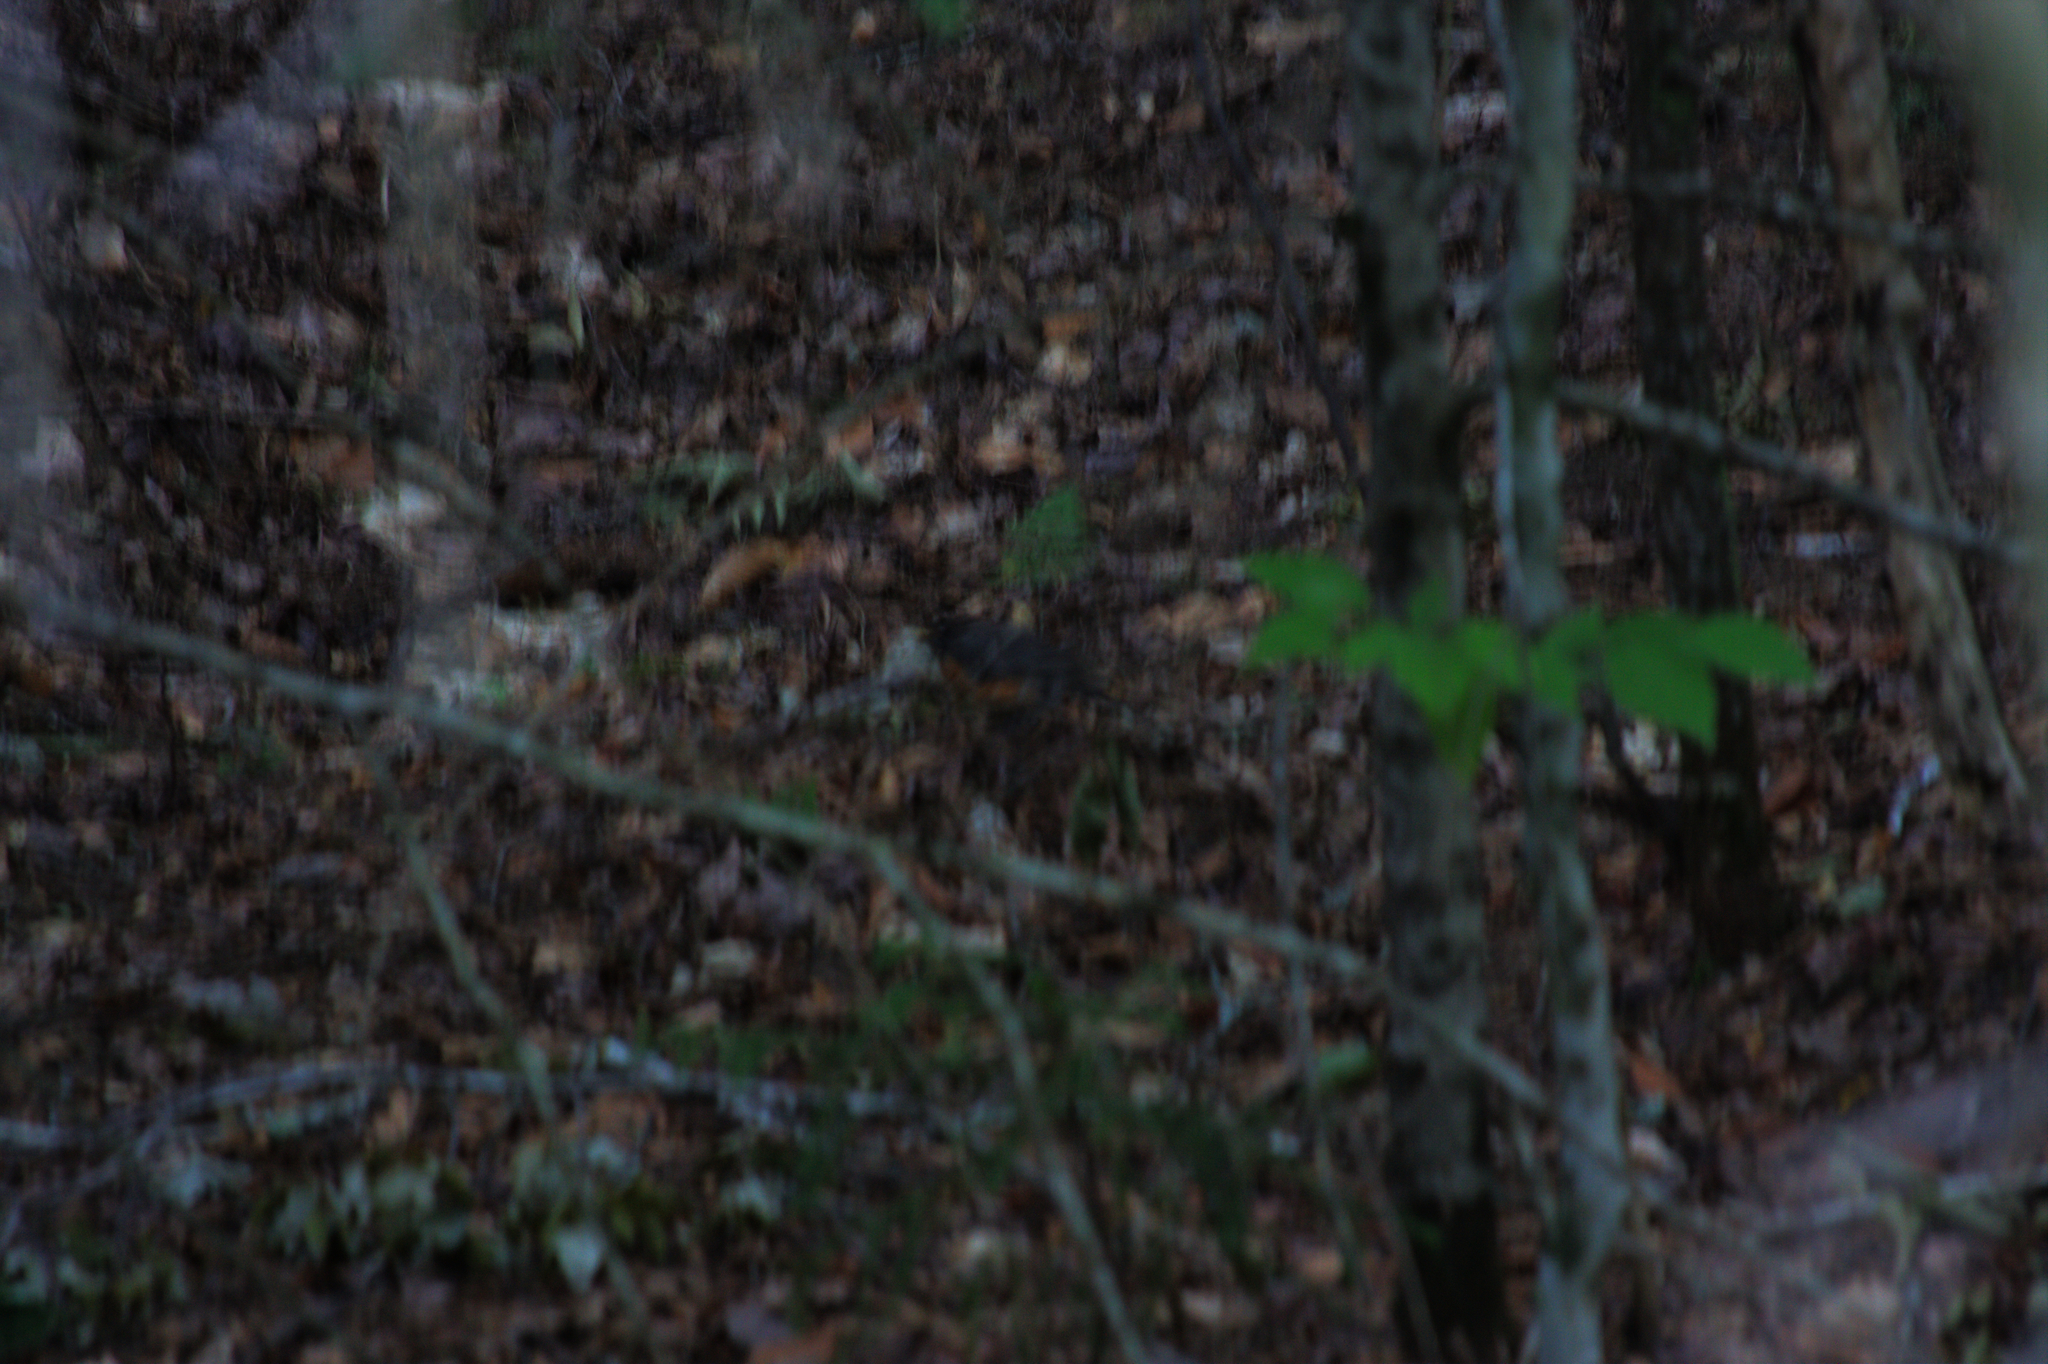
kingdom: Animalia
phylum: Chordata
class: Aves
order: Passeriformes
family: Turdidae
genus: Turdus
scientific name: Turdus migratorius
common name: American robin
